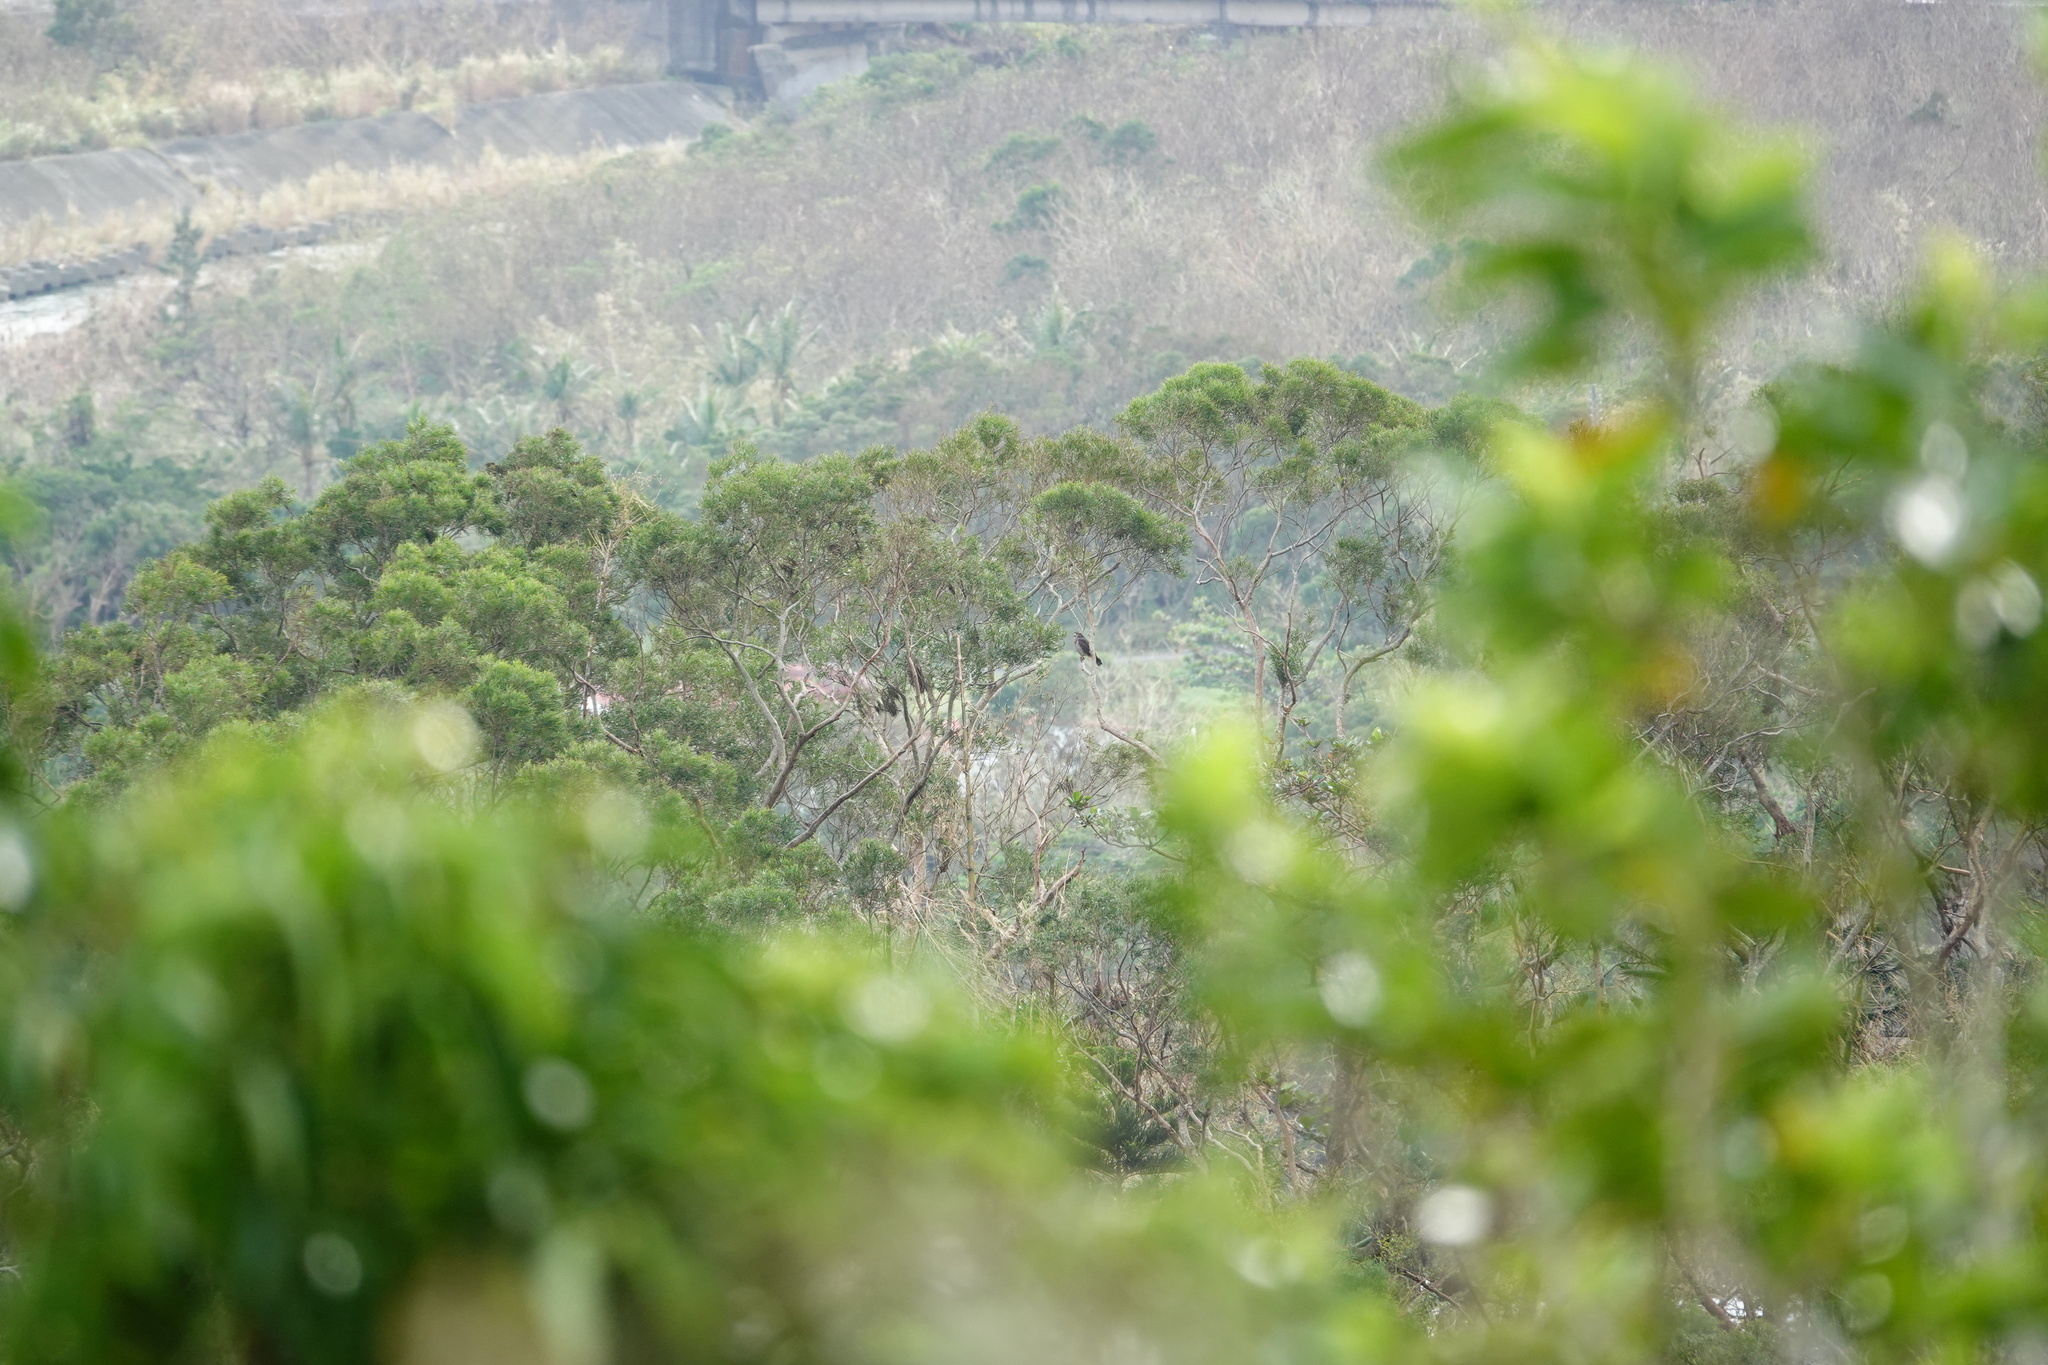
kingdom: Animalia
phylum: Chordata
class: Aves
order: Accipitriformes
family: Accipitridae
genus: Butastur
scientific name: Butastur indicus
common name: Grey-faced buzzard
